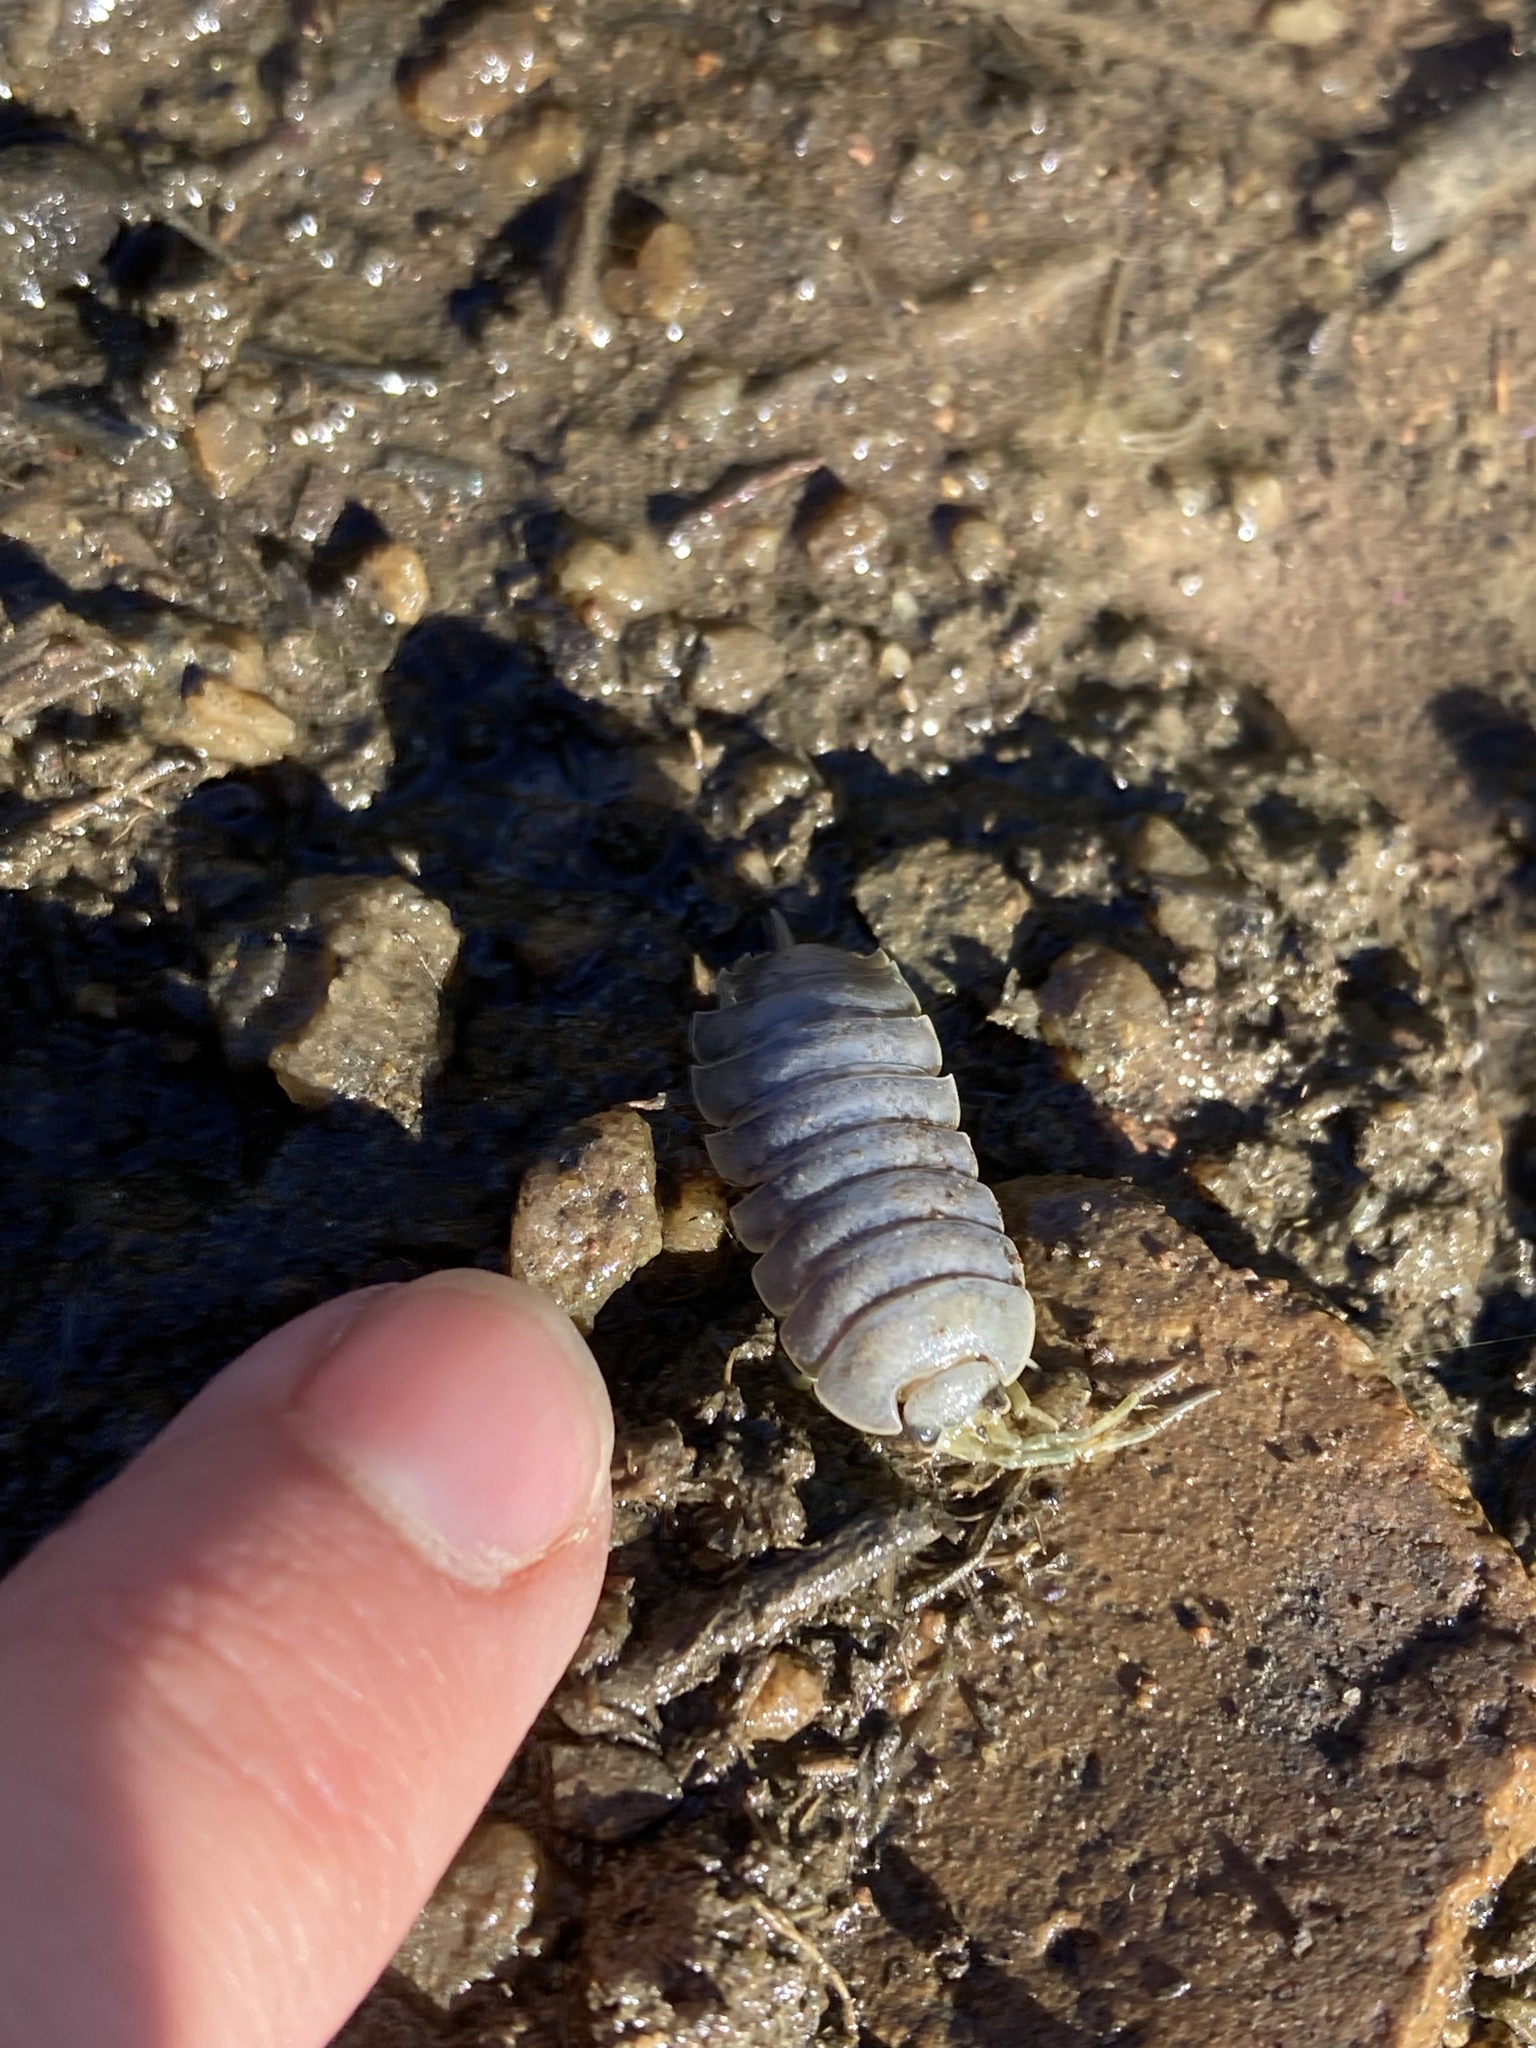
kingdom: Animalia
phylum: Arthropoda
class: Malacostraca
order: Isopoda
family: Porcellionidae
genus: Porcellio
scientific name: Porcellio laevis
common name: Swift woodlouse
